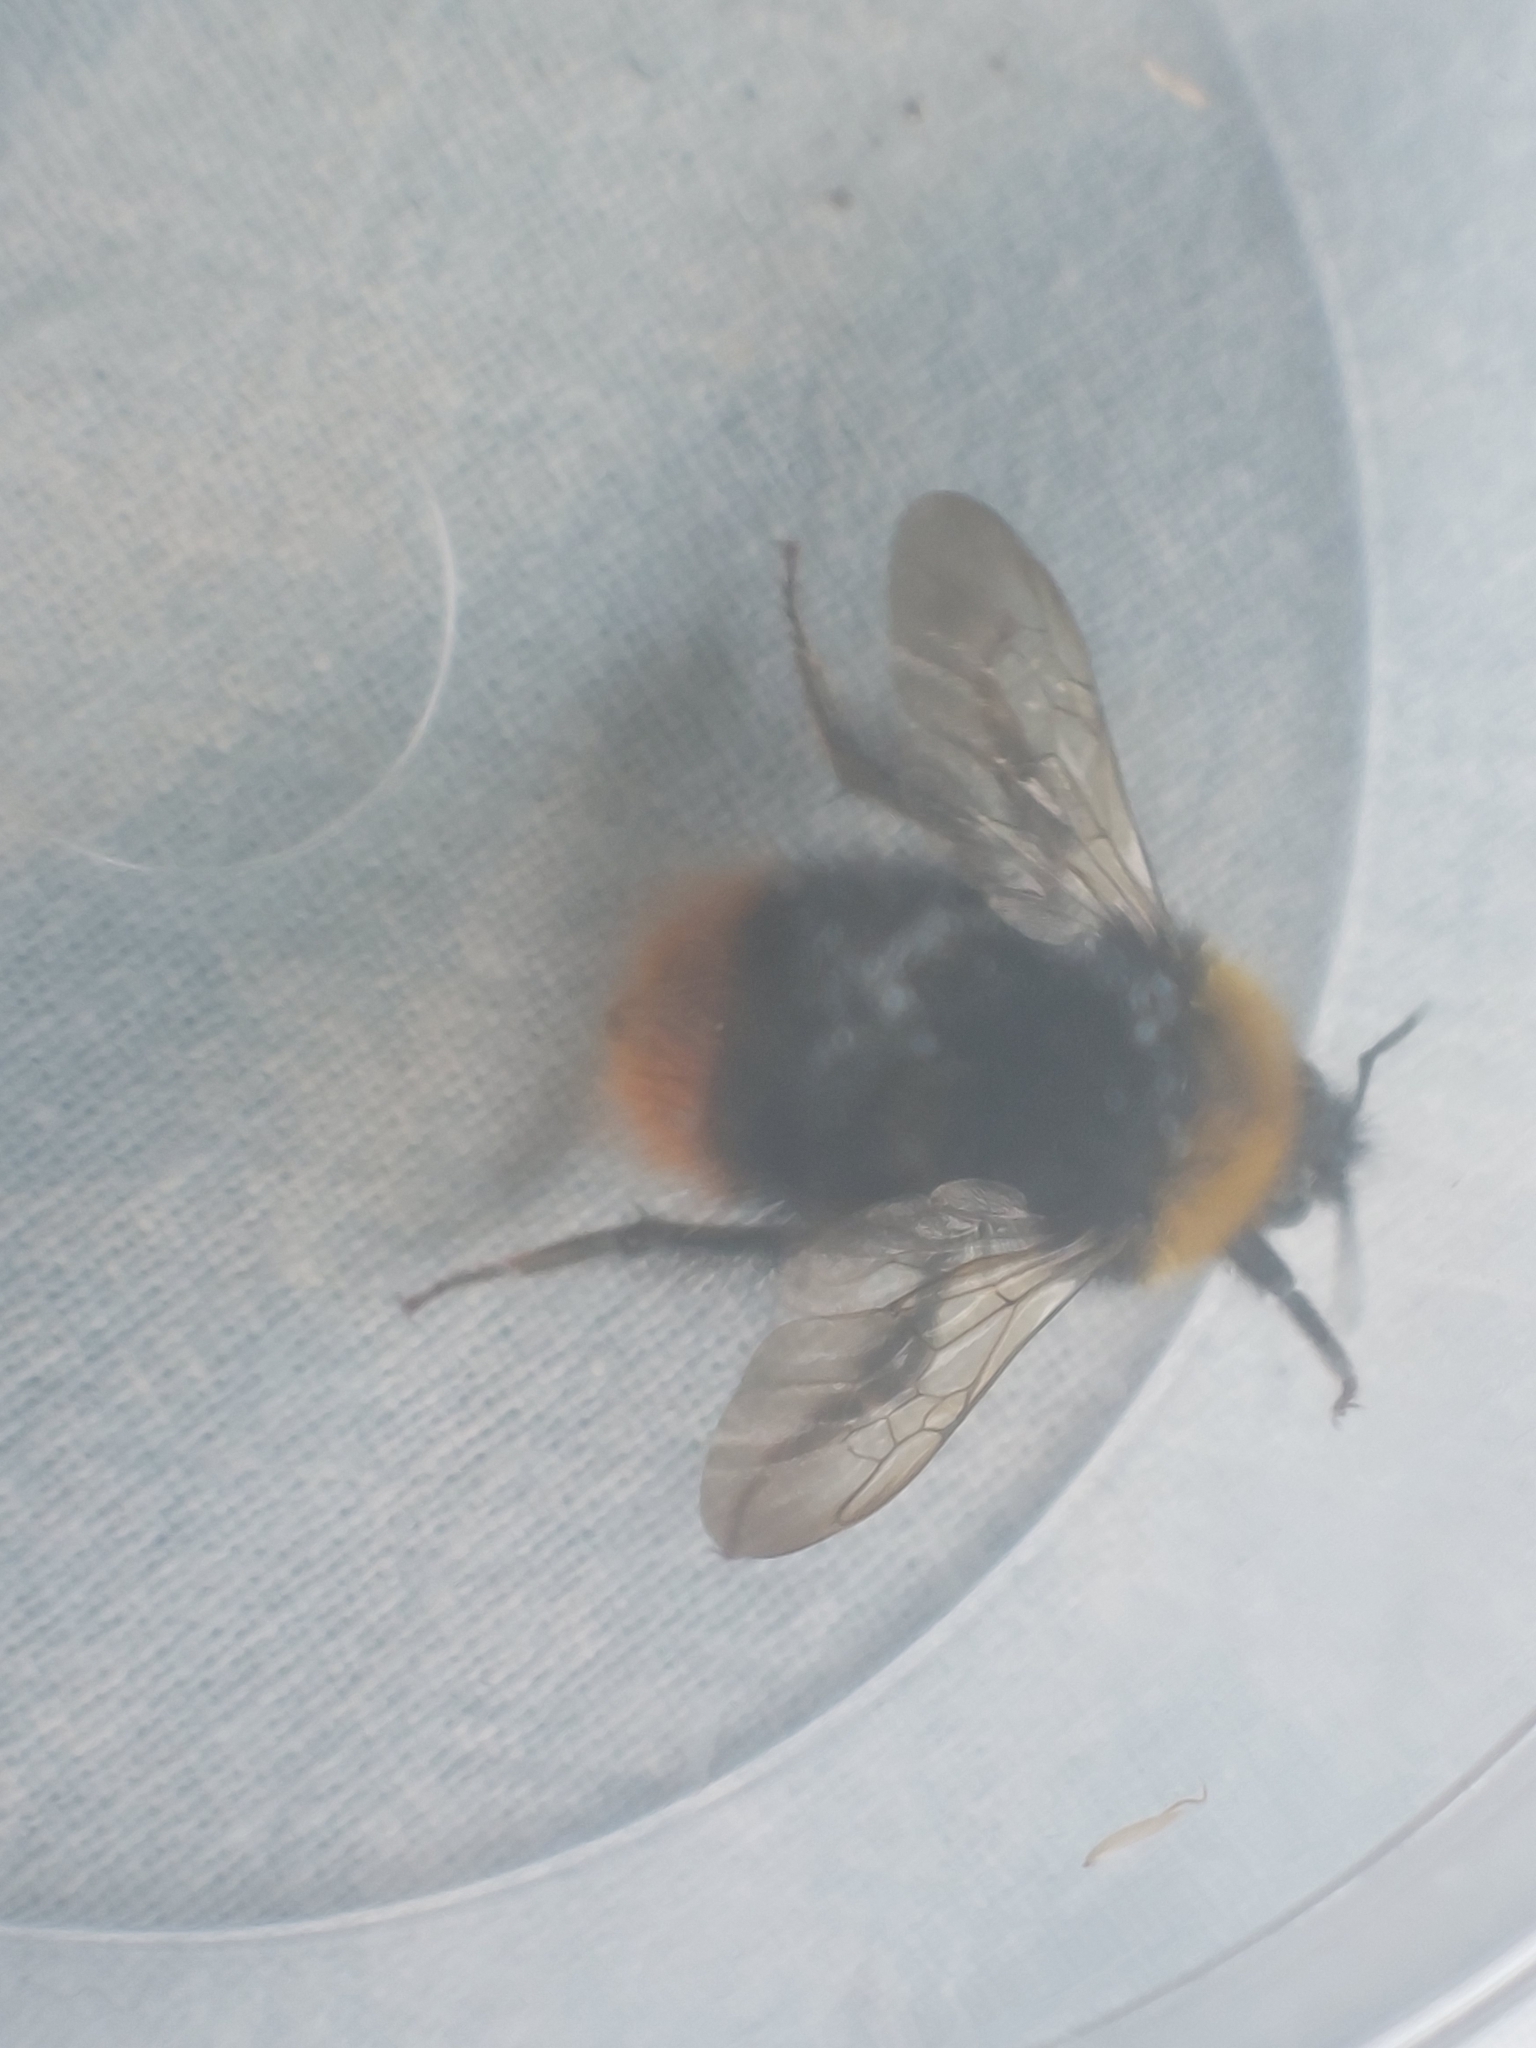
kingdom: Animalia
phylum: Arthropoda
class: Insecta
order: Hymenoptera
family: Apidae
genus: Bombus
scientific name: Bombus pratorum
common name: Early humble-bee
